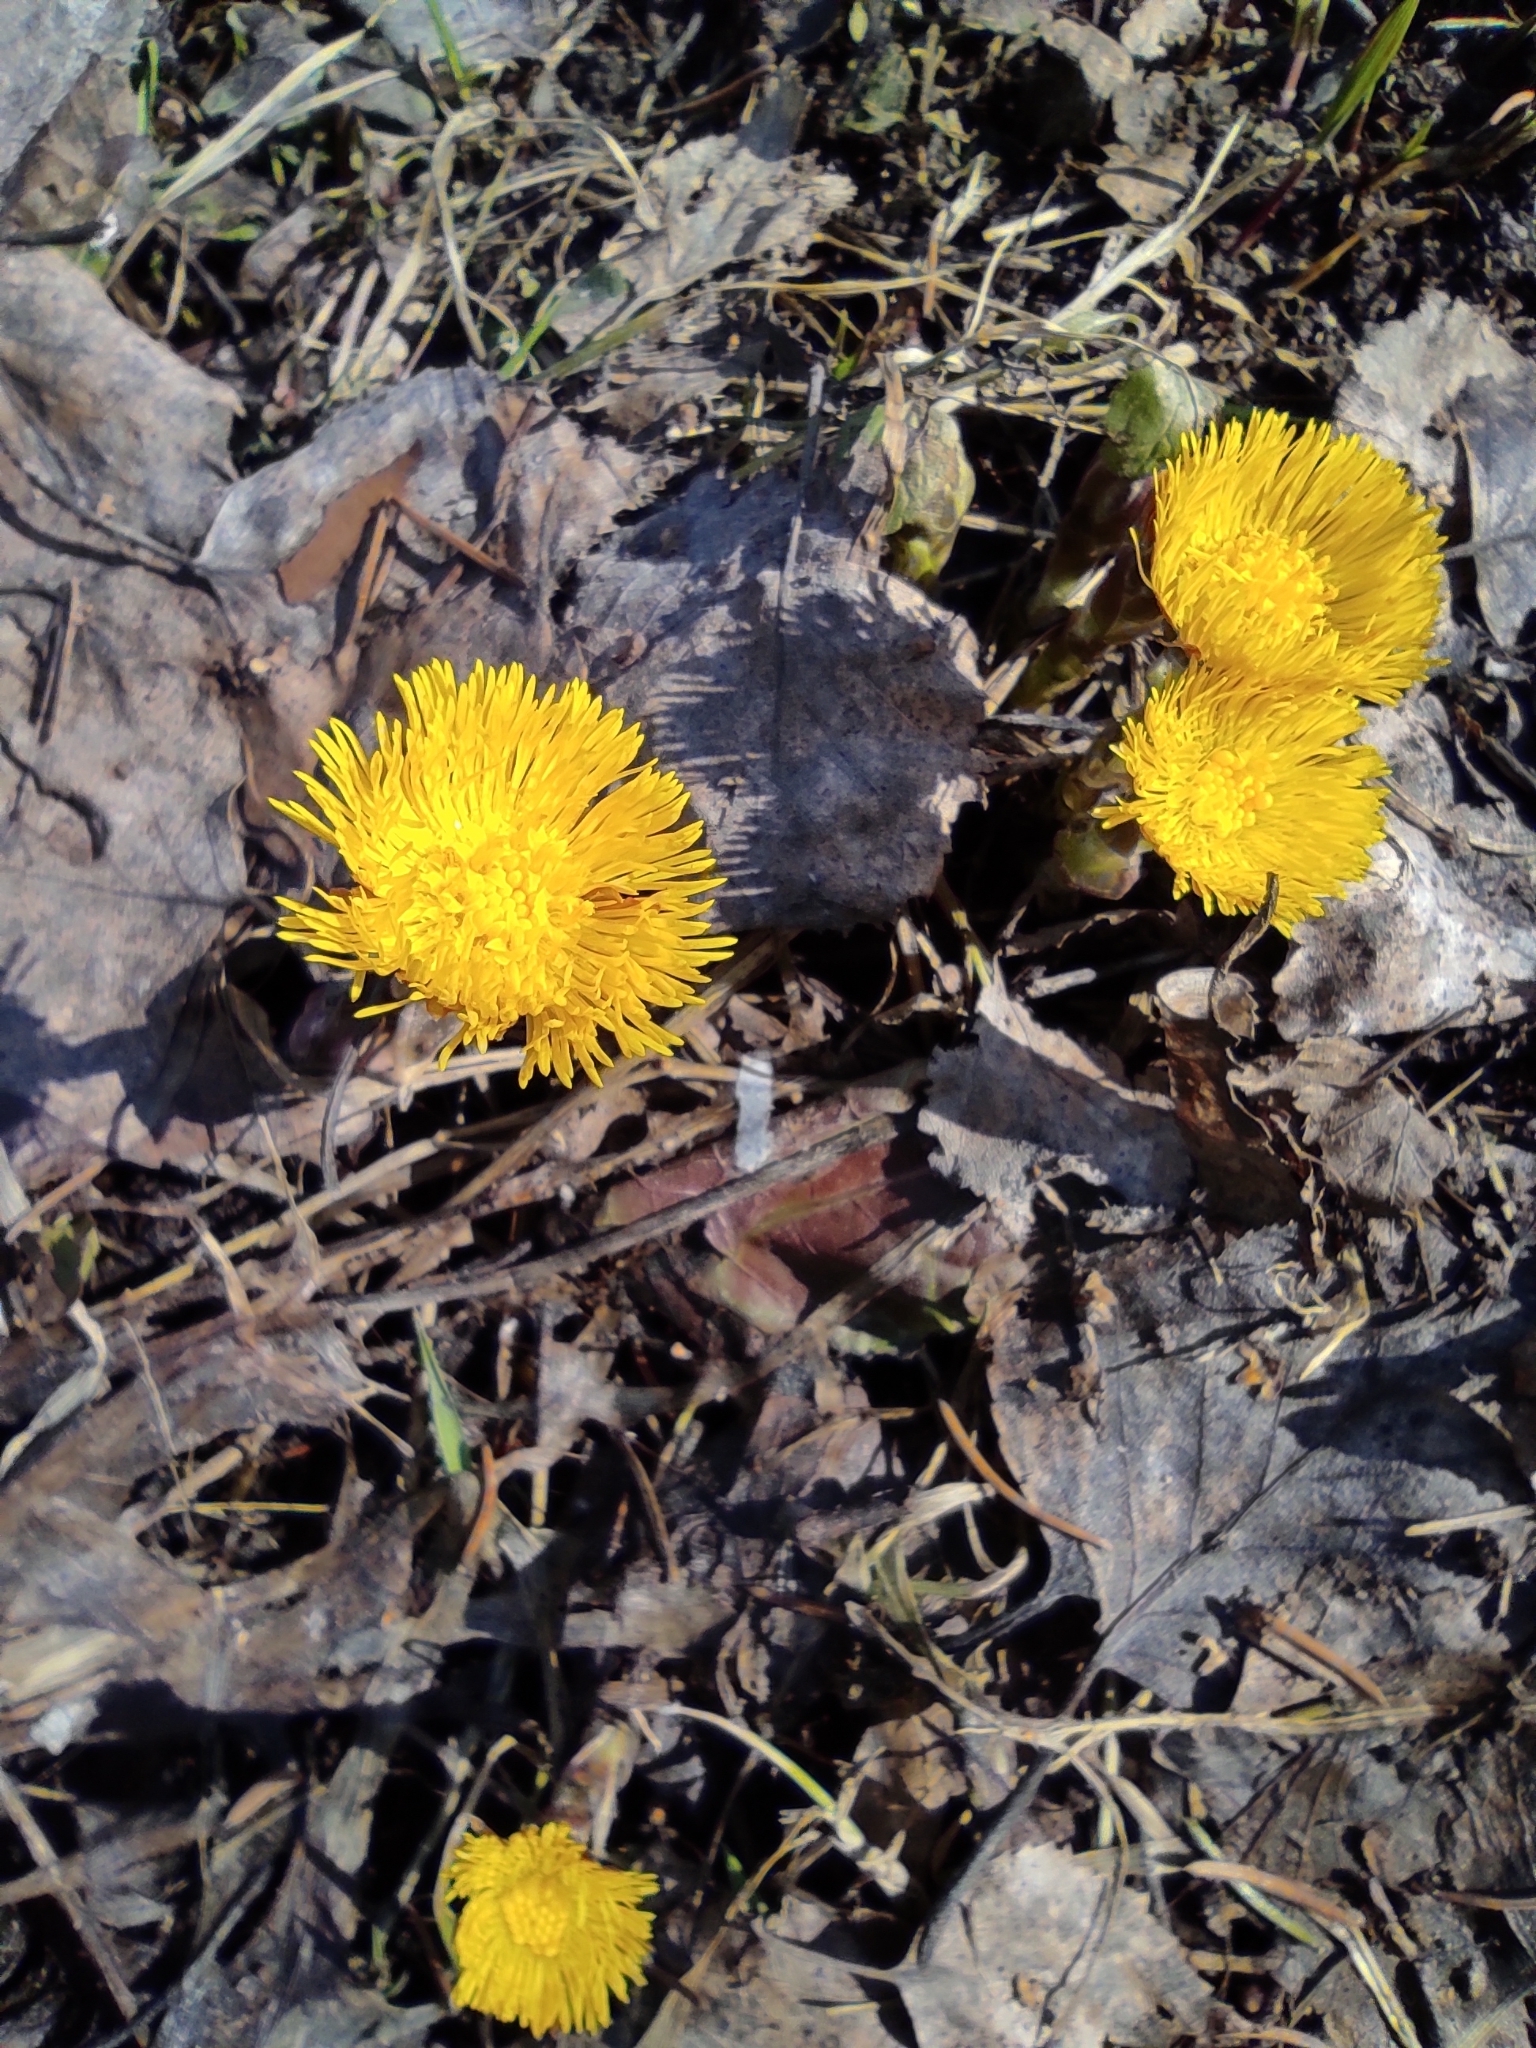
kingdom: Plantae
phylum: Tracheophyta
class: Magnoliopsida
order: Asterales
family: Asteraceae
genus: Tussilago
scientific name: Tussilago farfara
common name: Coltsfoot
